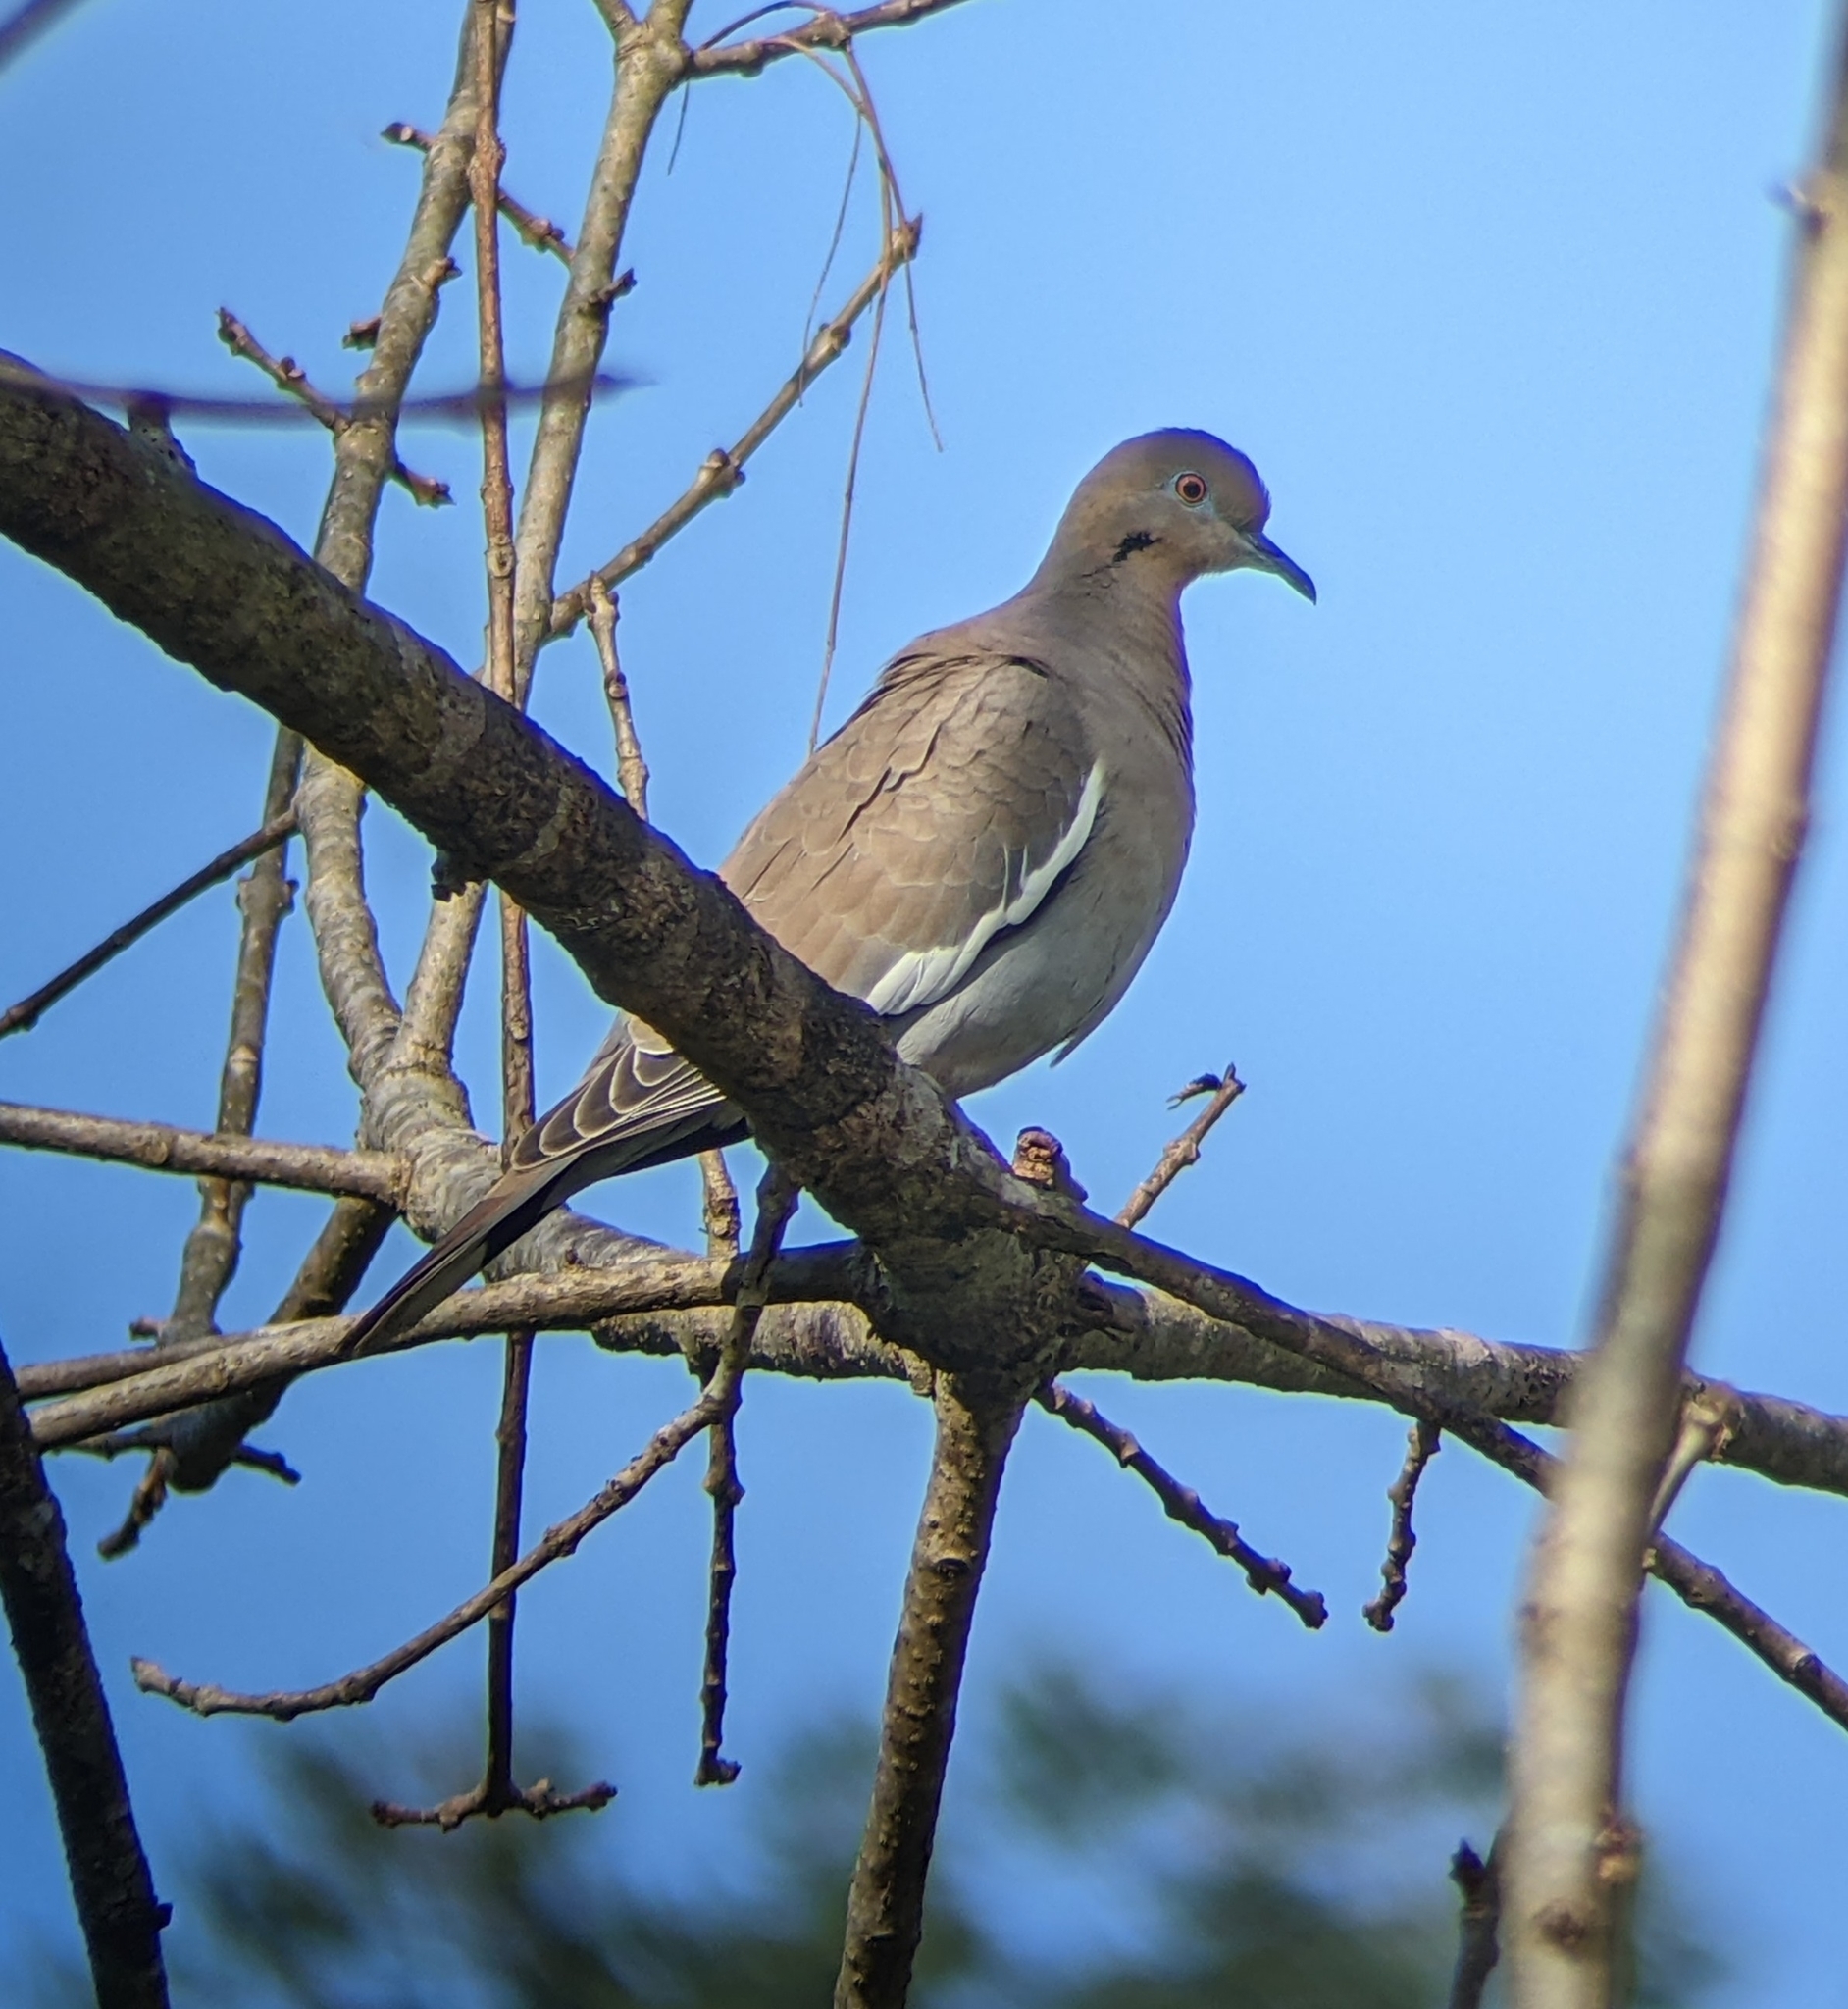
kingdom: Animalia
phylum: Chordata
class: Aves
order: Columbiformes
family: Columbidae
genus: Zenaida
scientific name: Zenaida asiatica
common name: White-winged dove
